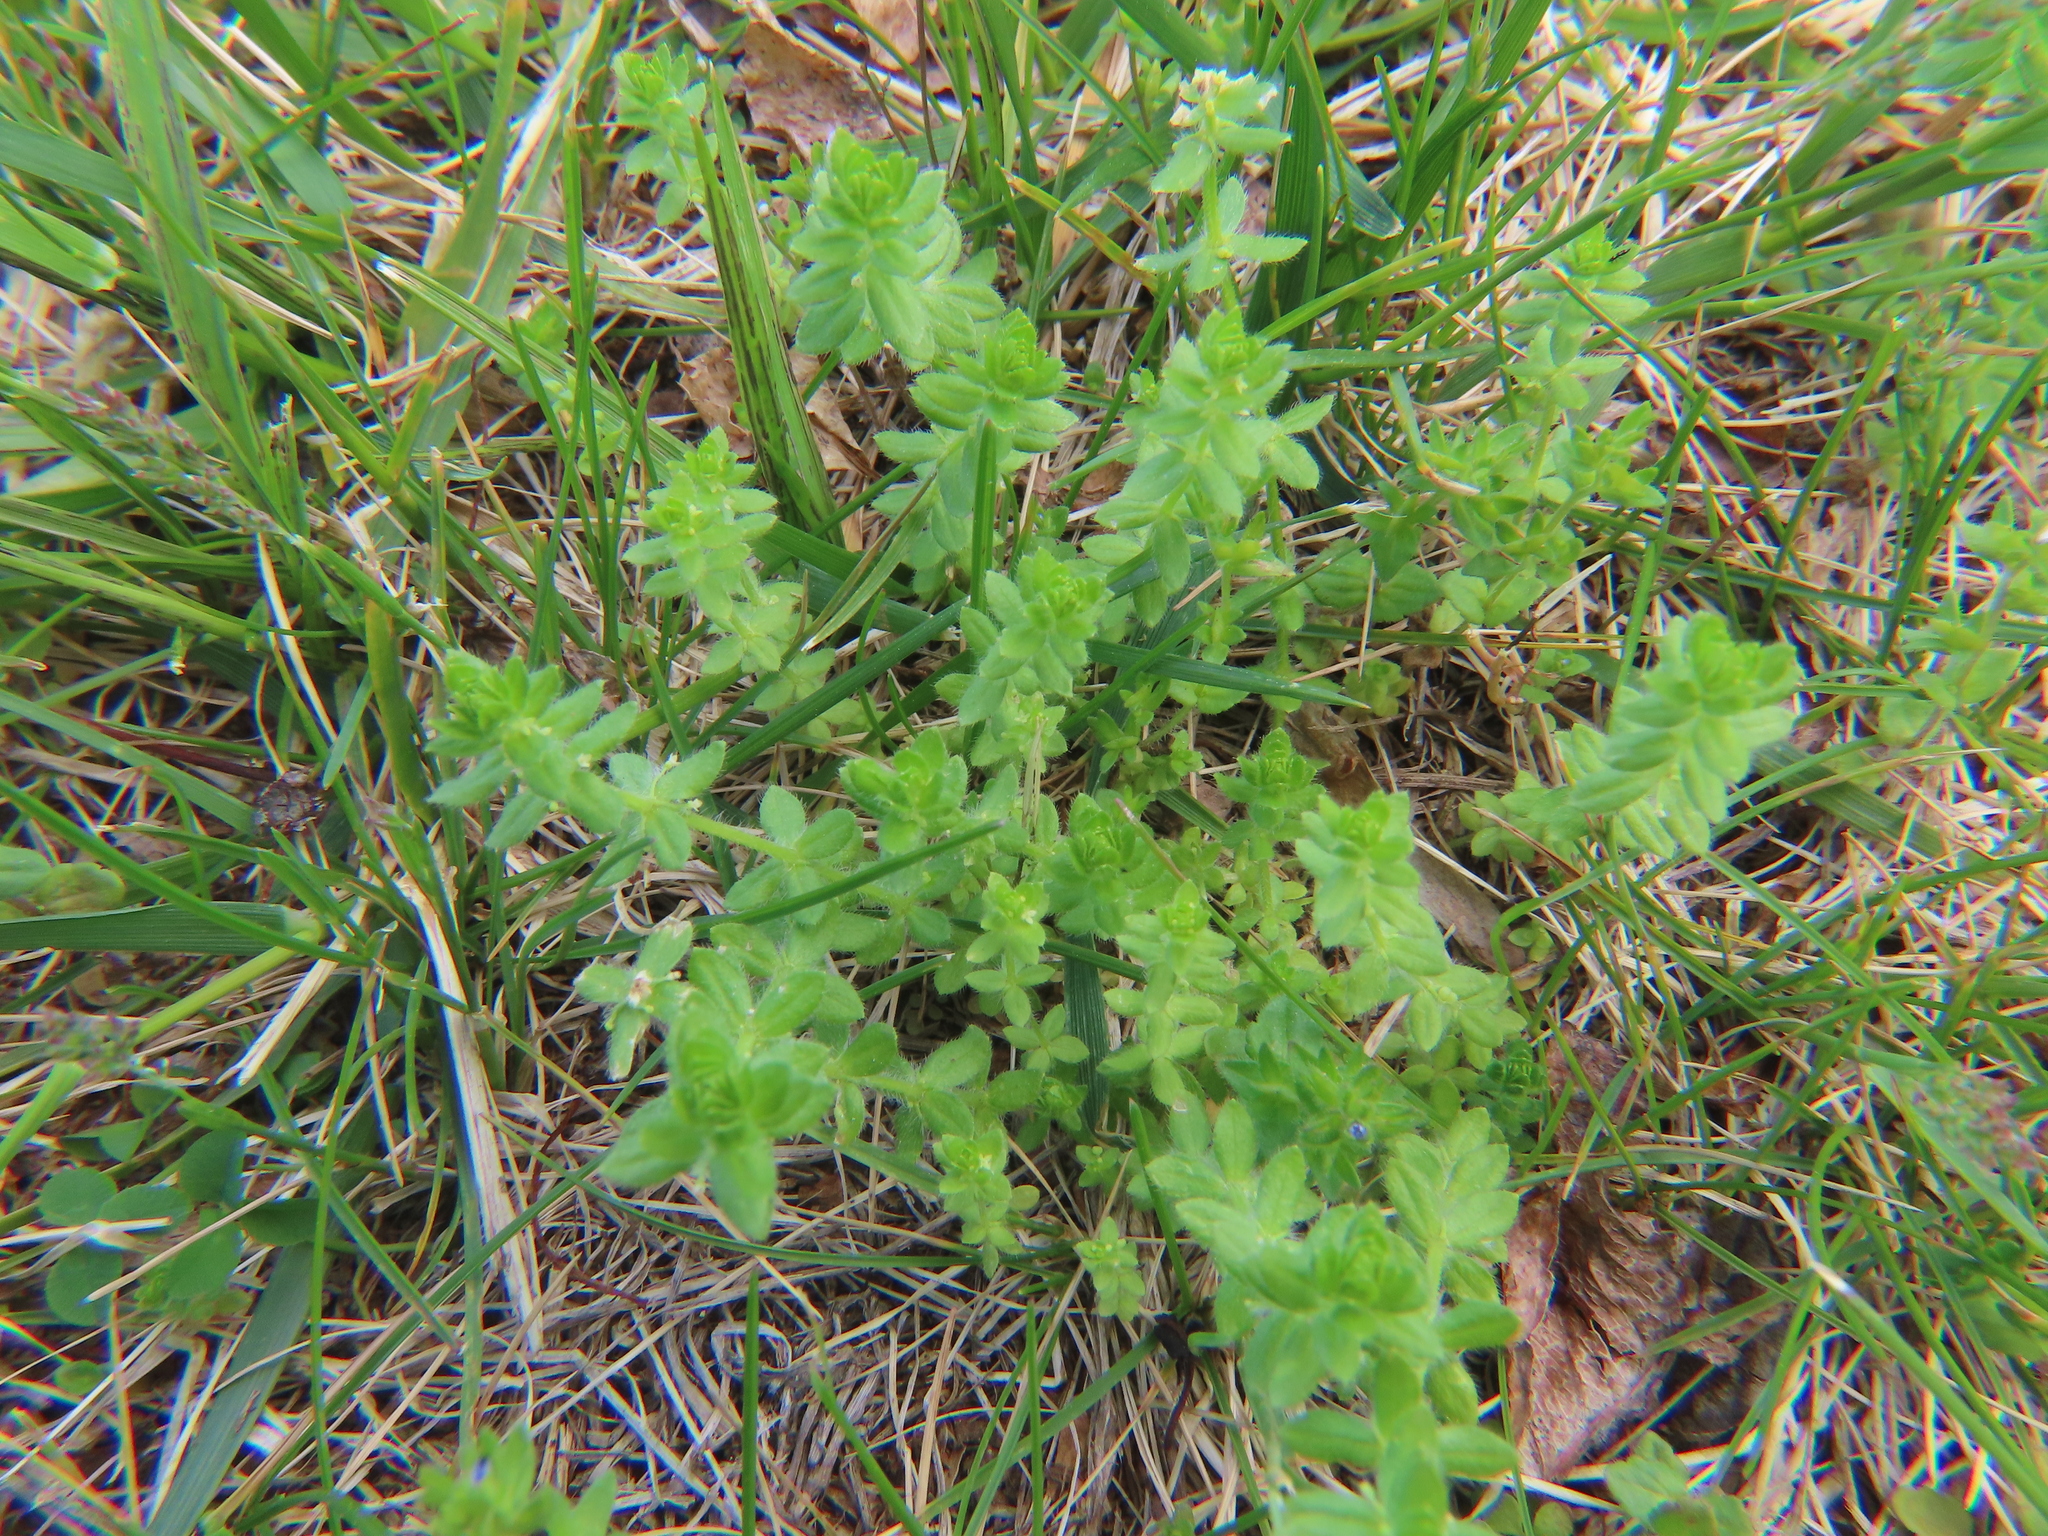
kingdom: Plantae
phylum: Tracheophyta
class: Magnoliopsida
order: Gentianales
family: Rubiaceae
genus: Cruciata
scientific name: Cruciata pedemontana
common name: Piedmont bedstraw
